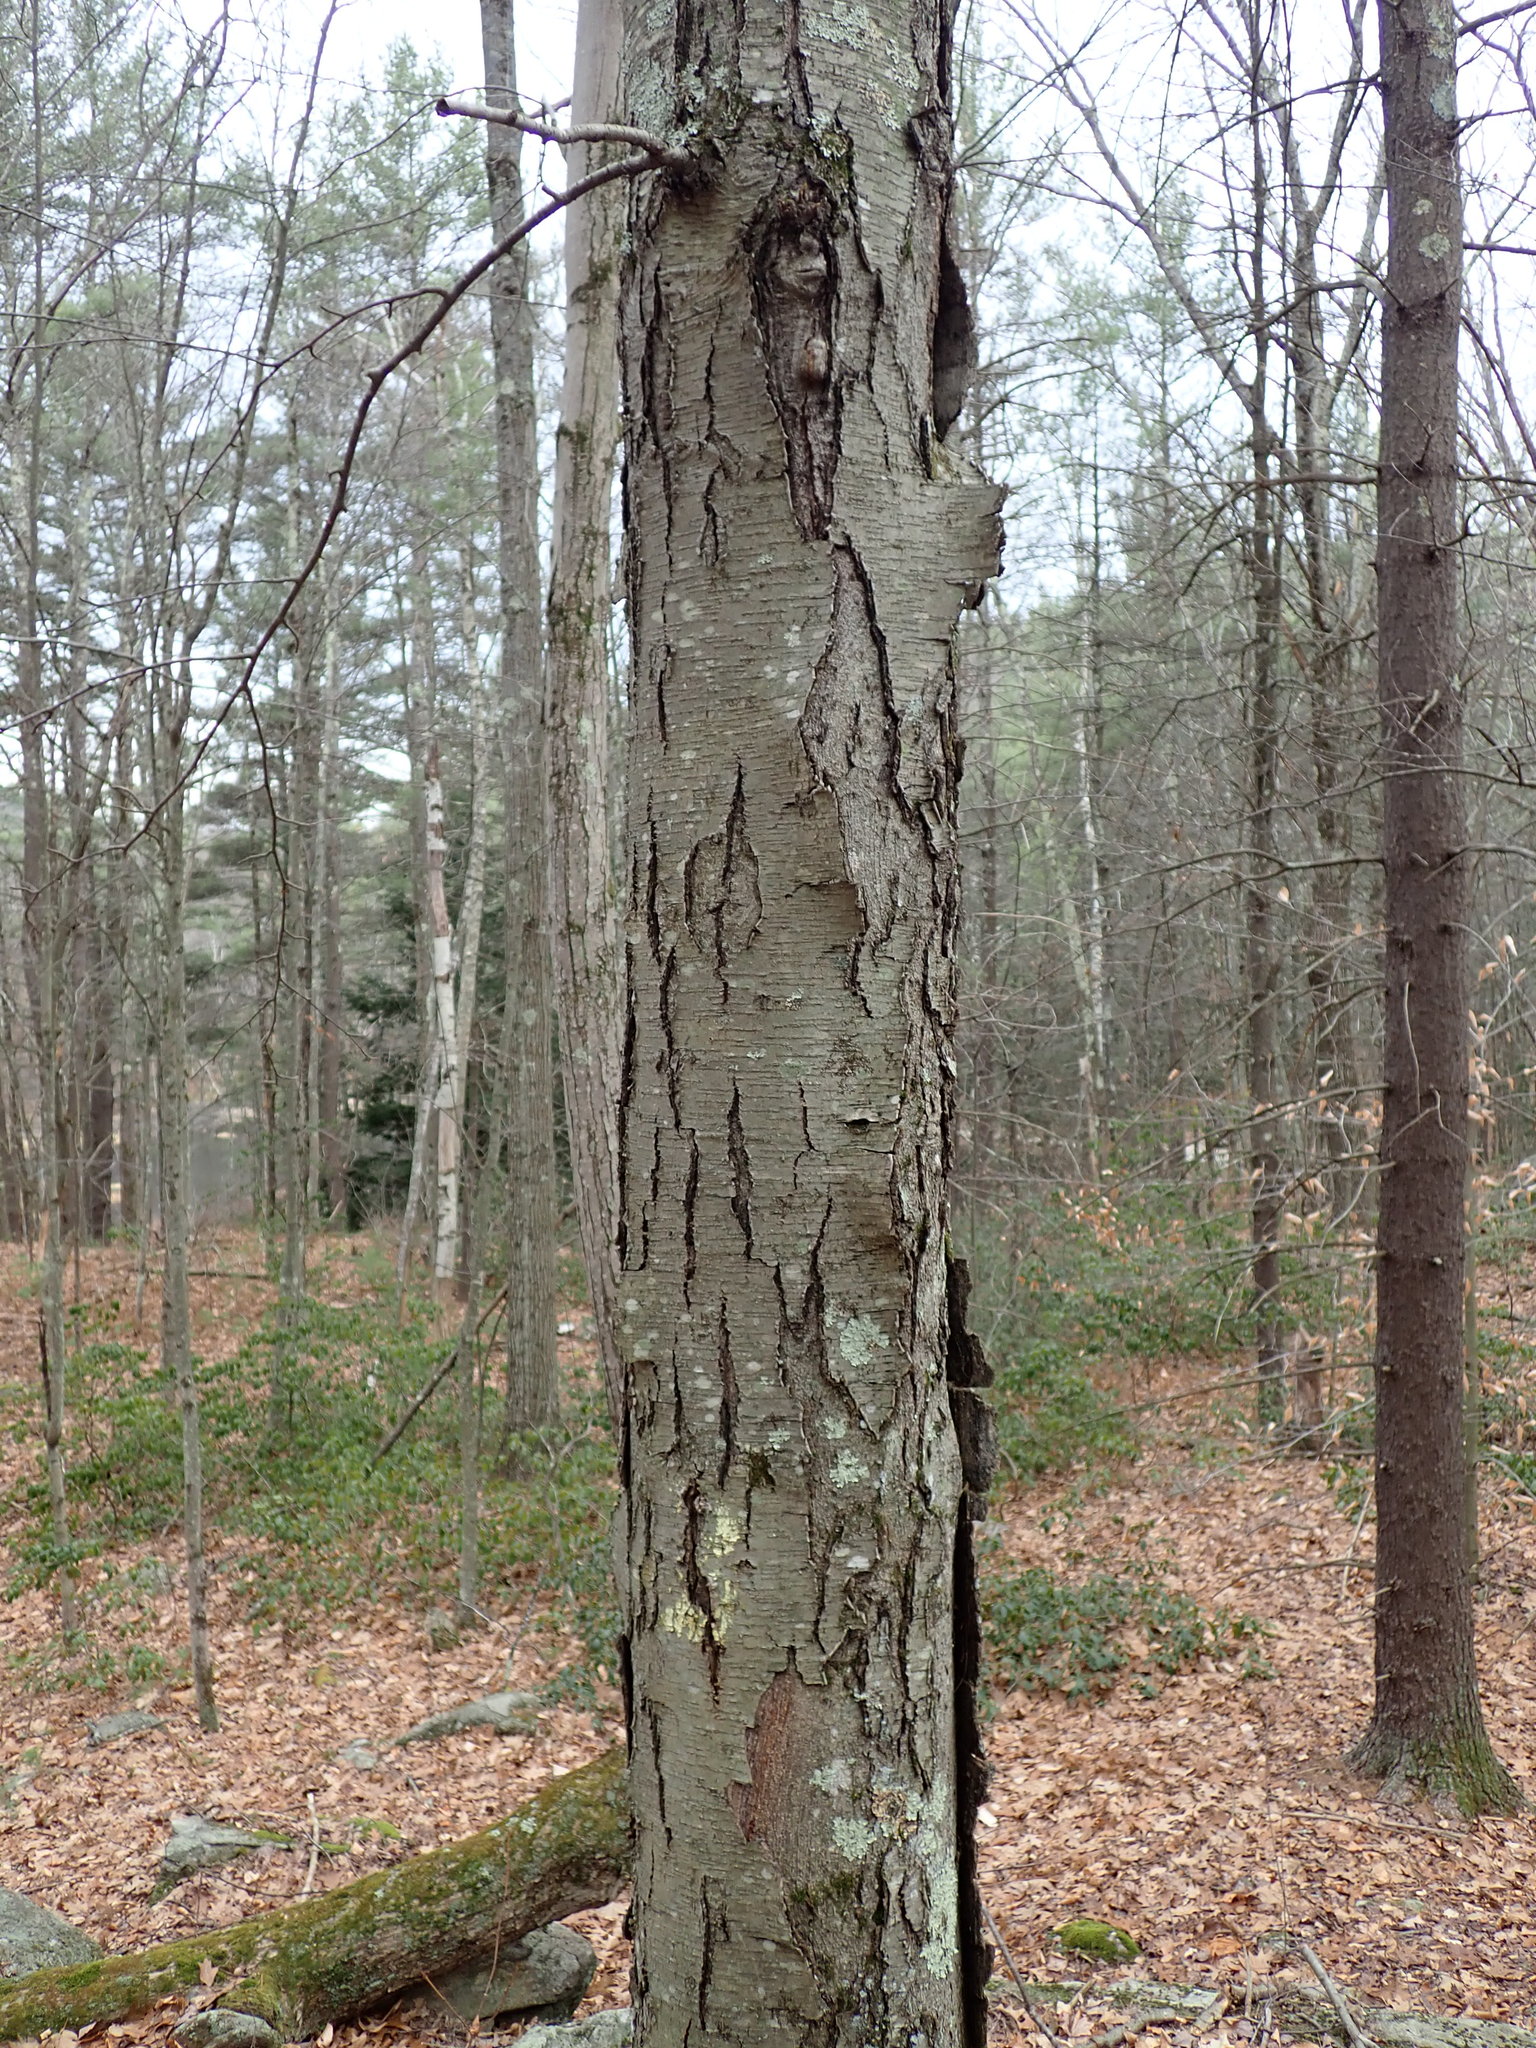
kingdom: Plantae
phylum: Tracheophyta
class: Magnoliopsida
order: Fagales
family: Betulaceae
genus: Betula
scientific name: Betula lenta
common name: Black birch
